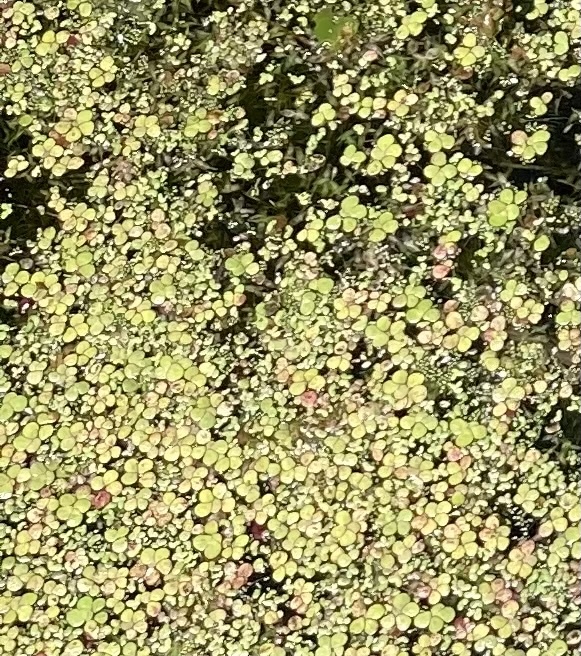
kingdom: Plantae
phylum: Tracheophyta
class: Liliopsida
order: Alismatales
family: Araceae
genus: Spirodela
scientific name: Spirodela polyrhiza
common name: Great duckweed
